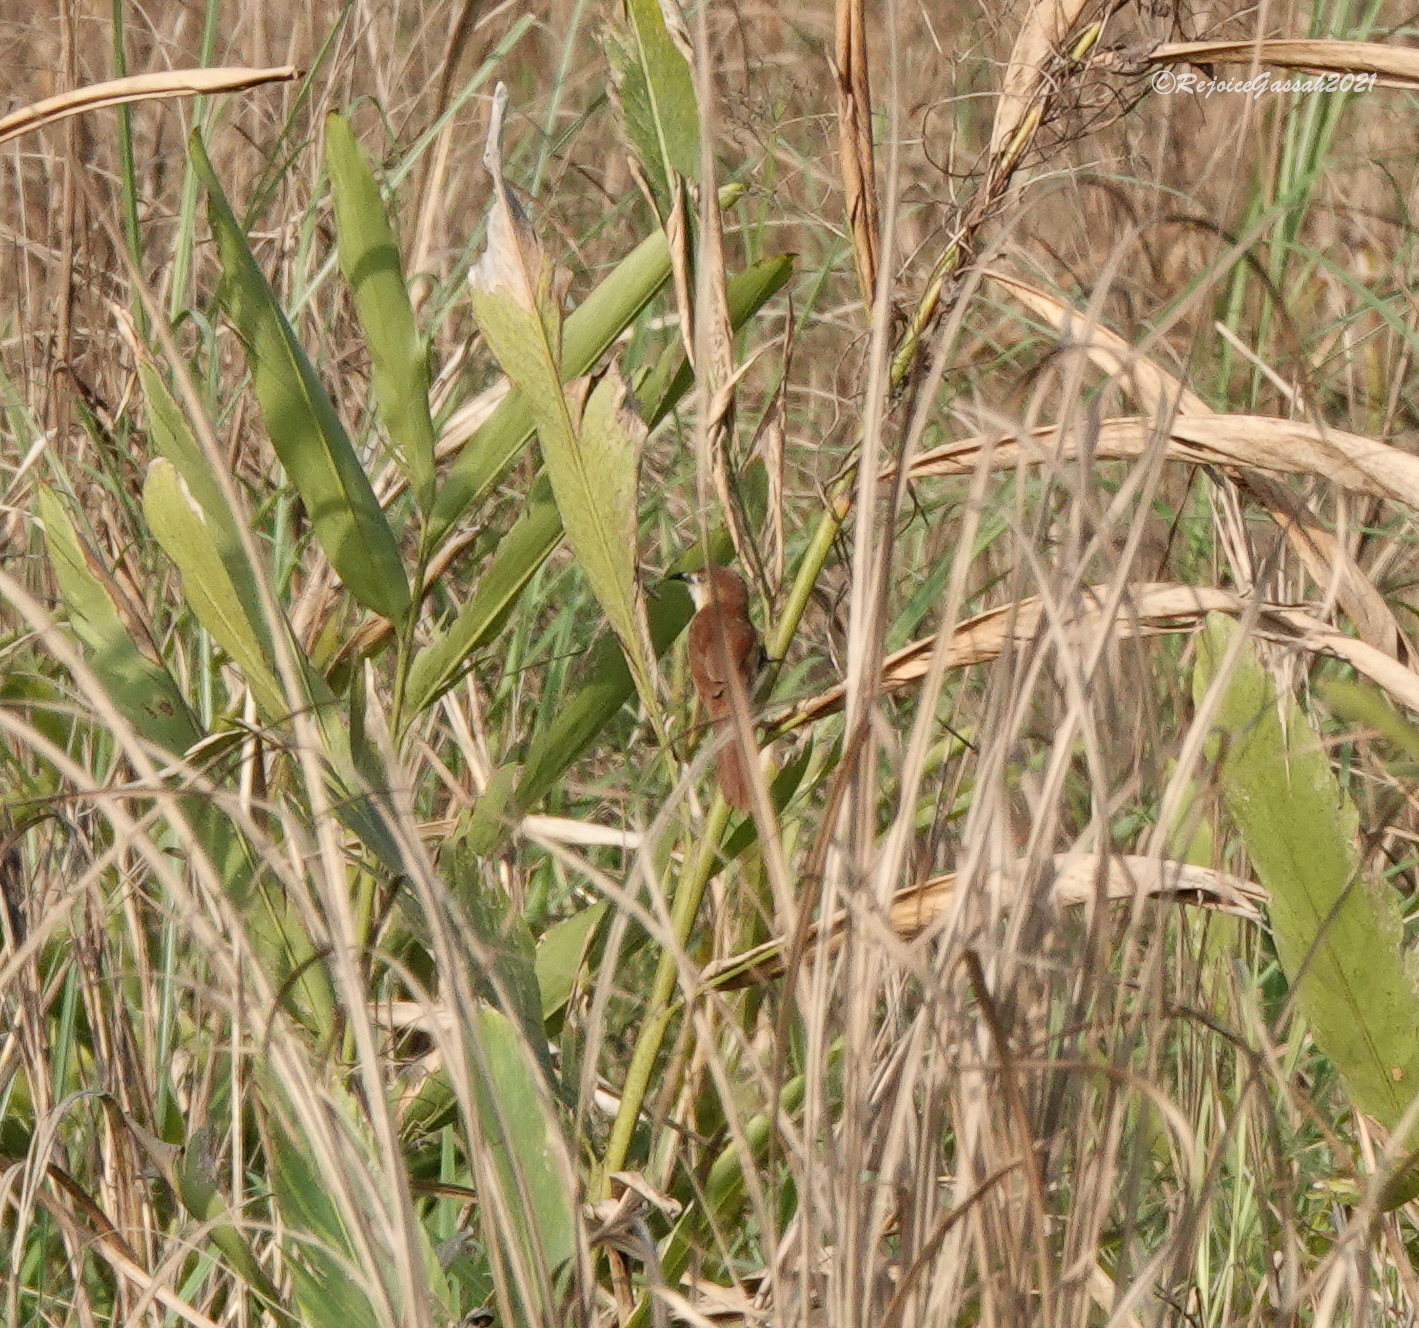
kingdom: Animalia
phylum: Chordata
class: Aves
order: Passeriformes
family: Leiothrichidae
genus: Argya
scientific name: Argya longirostris
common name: Slender-billed babbler
